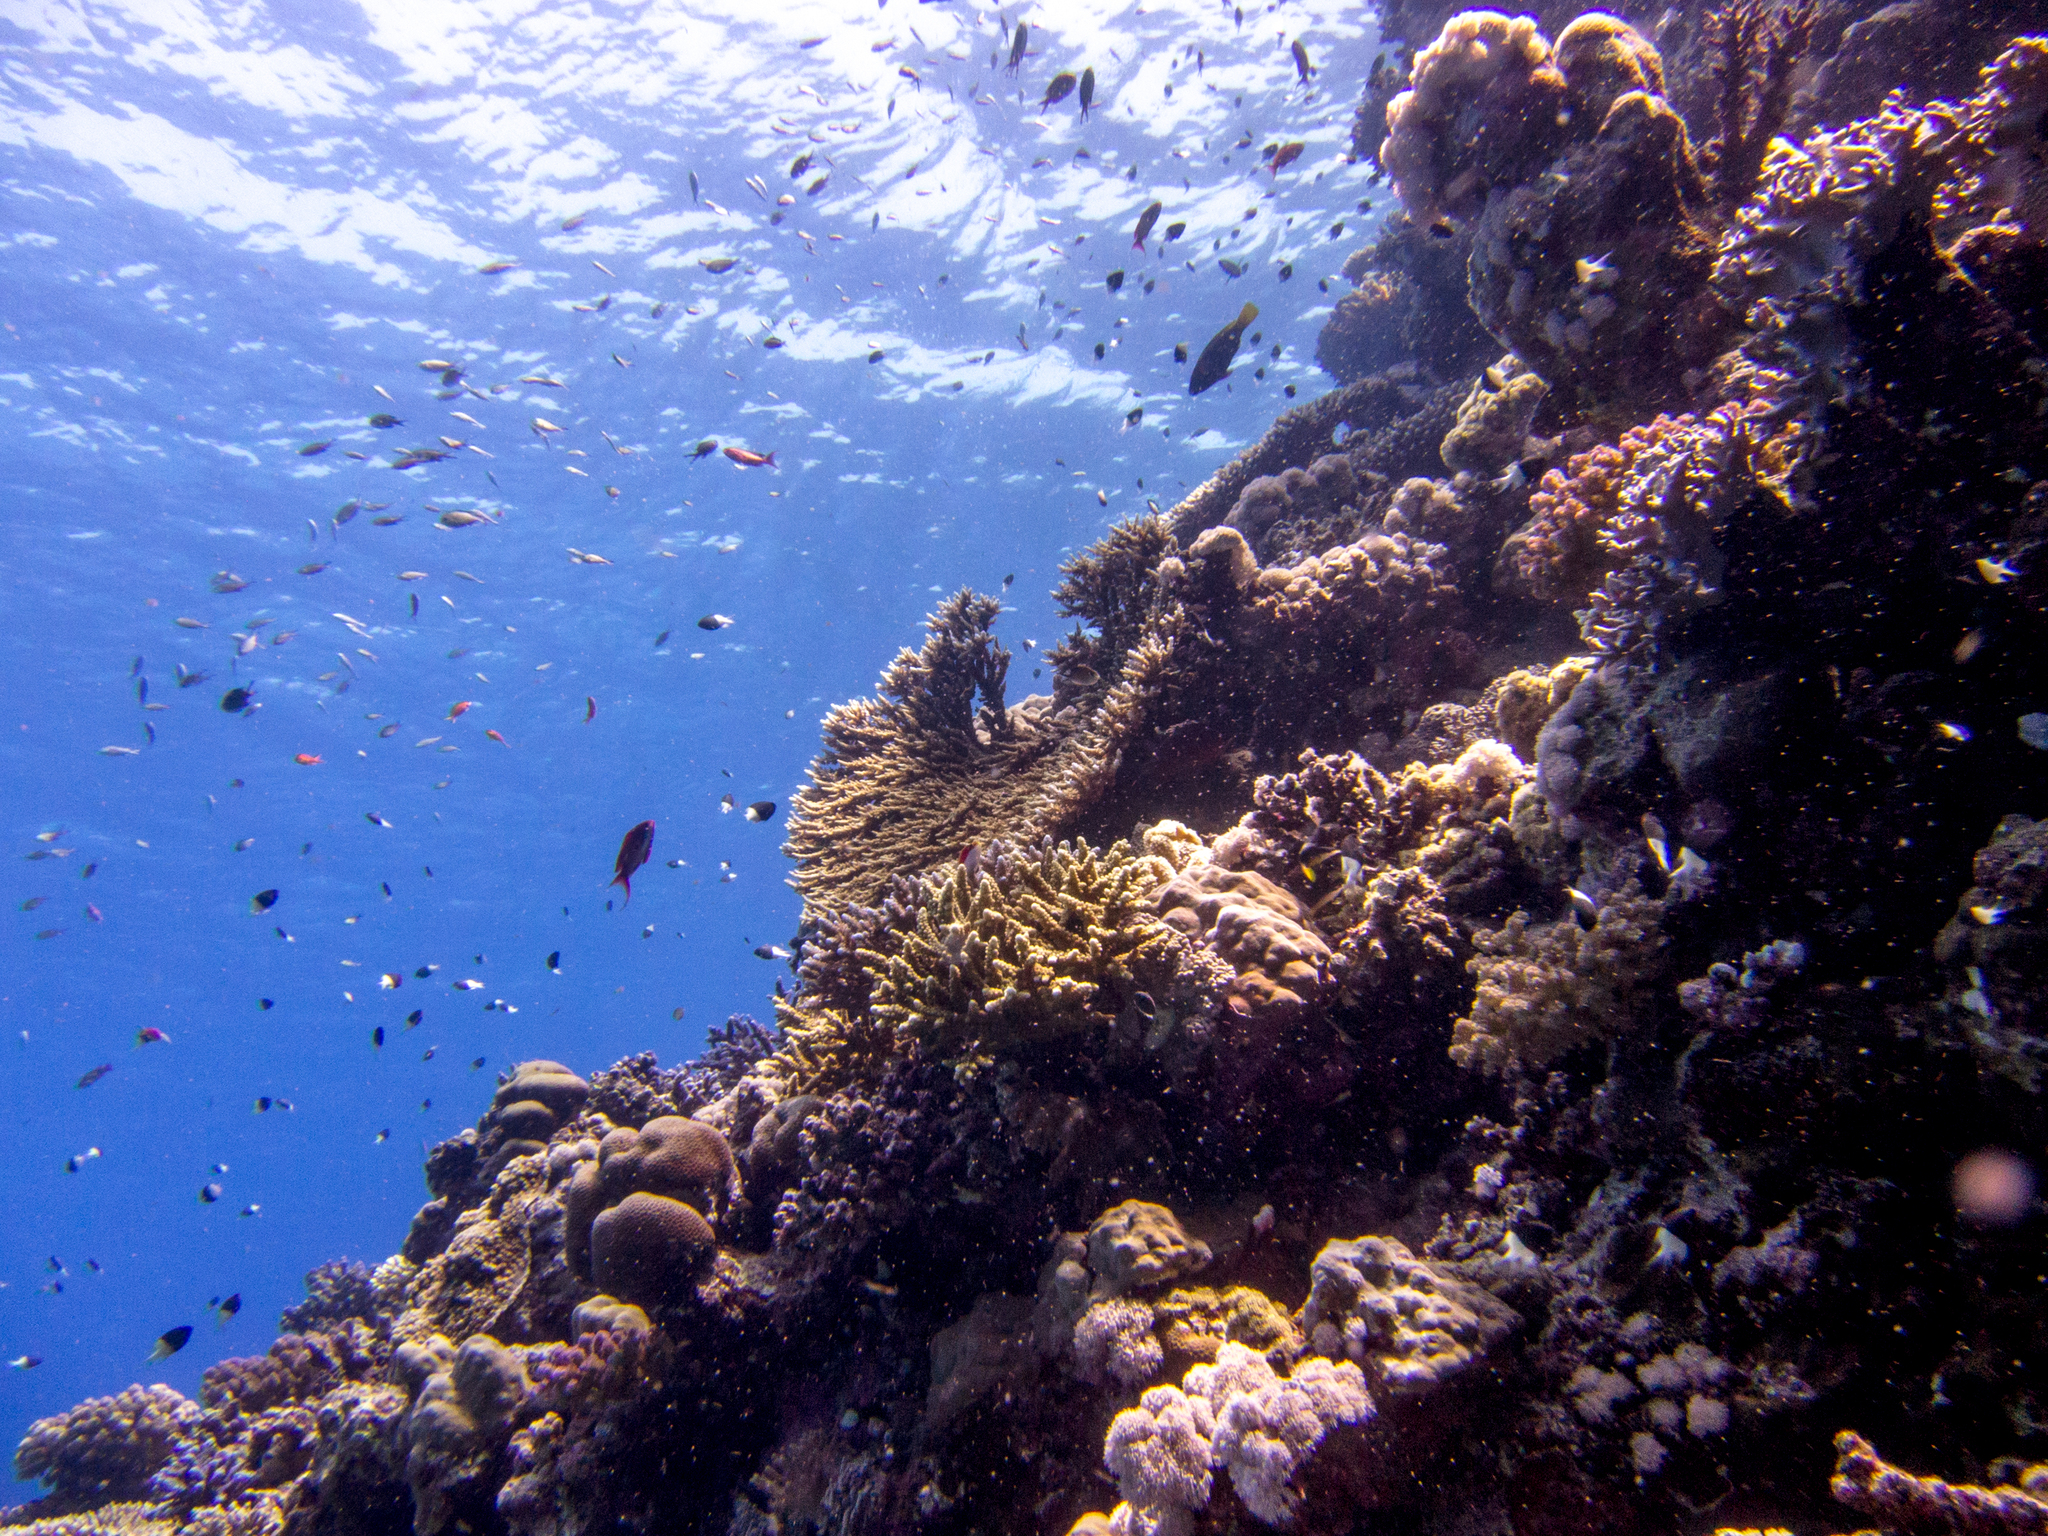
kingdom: Animalia
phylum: Chordata
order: Perciformes
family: Pomacentridae
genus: Chromis
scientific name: Chromis dimidiata
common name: Half-and-half chromis
